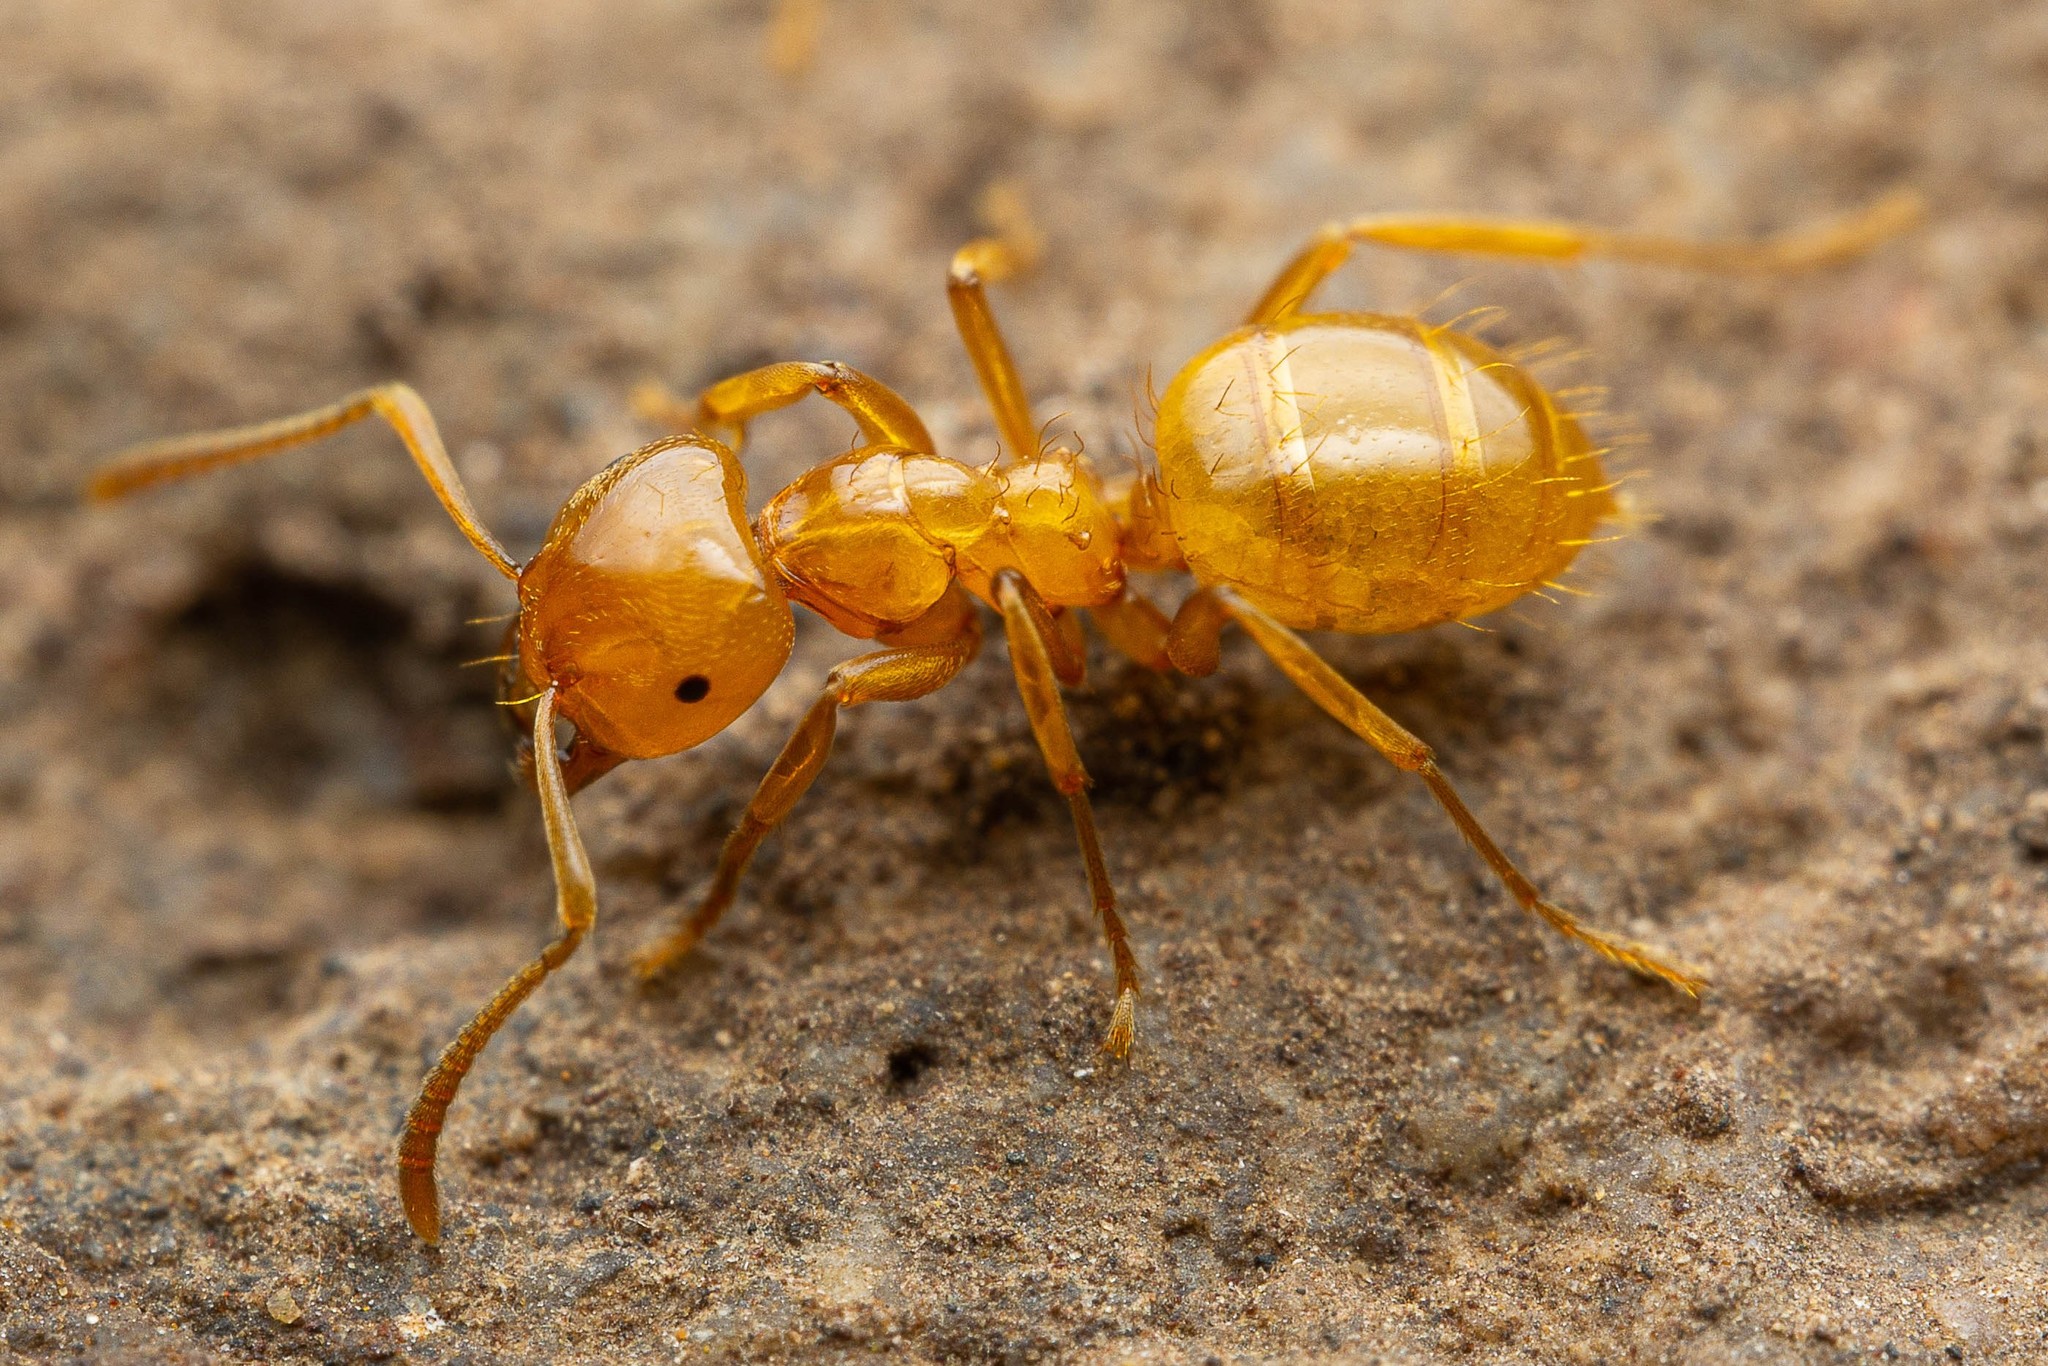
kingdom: Animalia
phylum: Arthropoda
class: Insecta
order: Hymenoptera
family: Formicidae
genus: Lasius
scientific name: Lasius arizonicus
